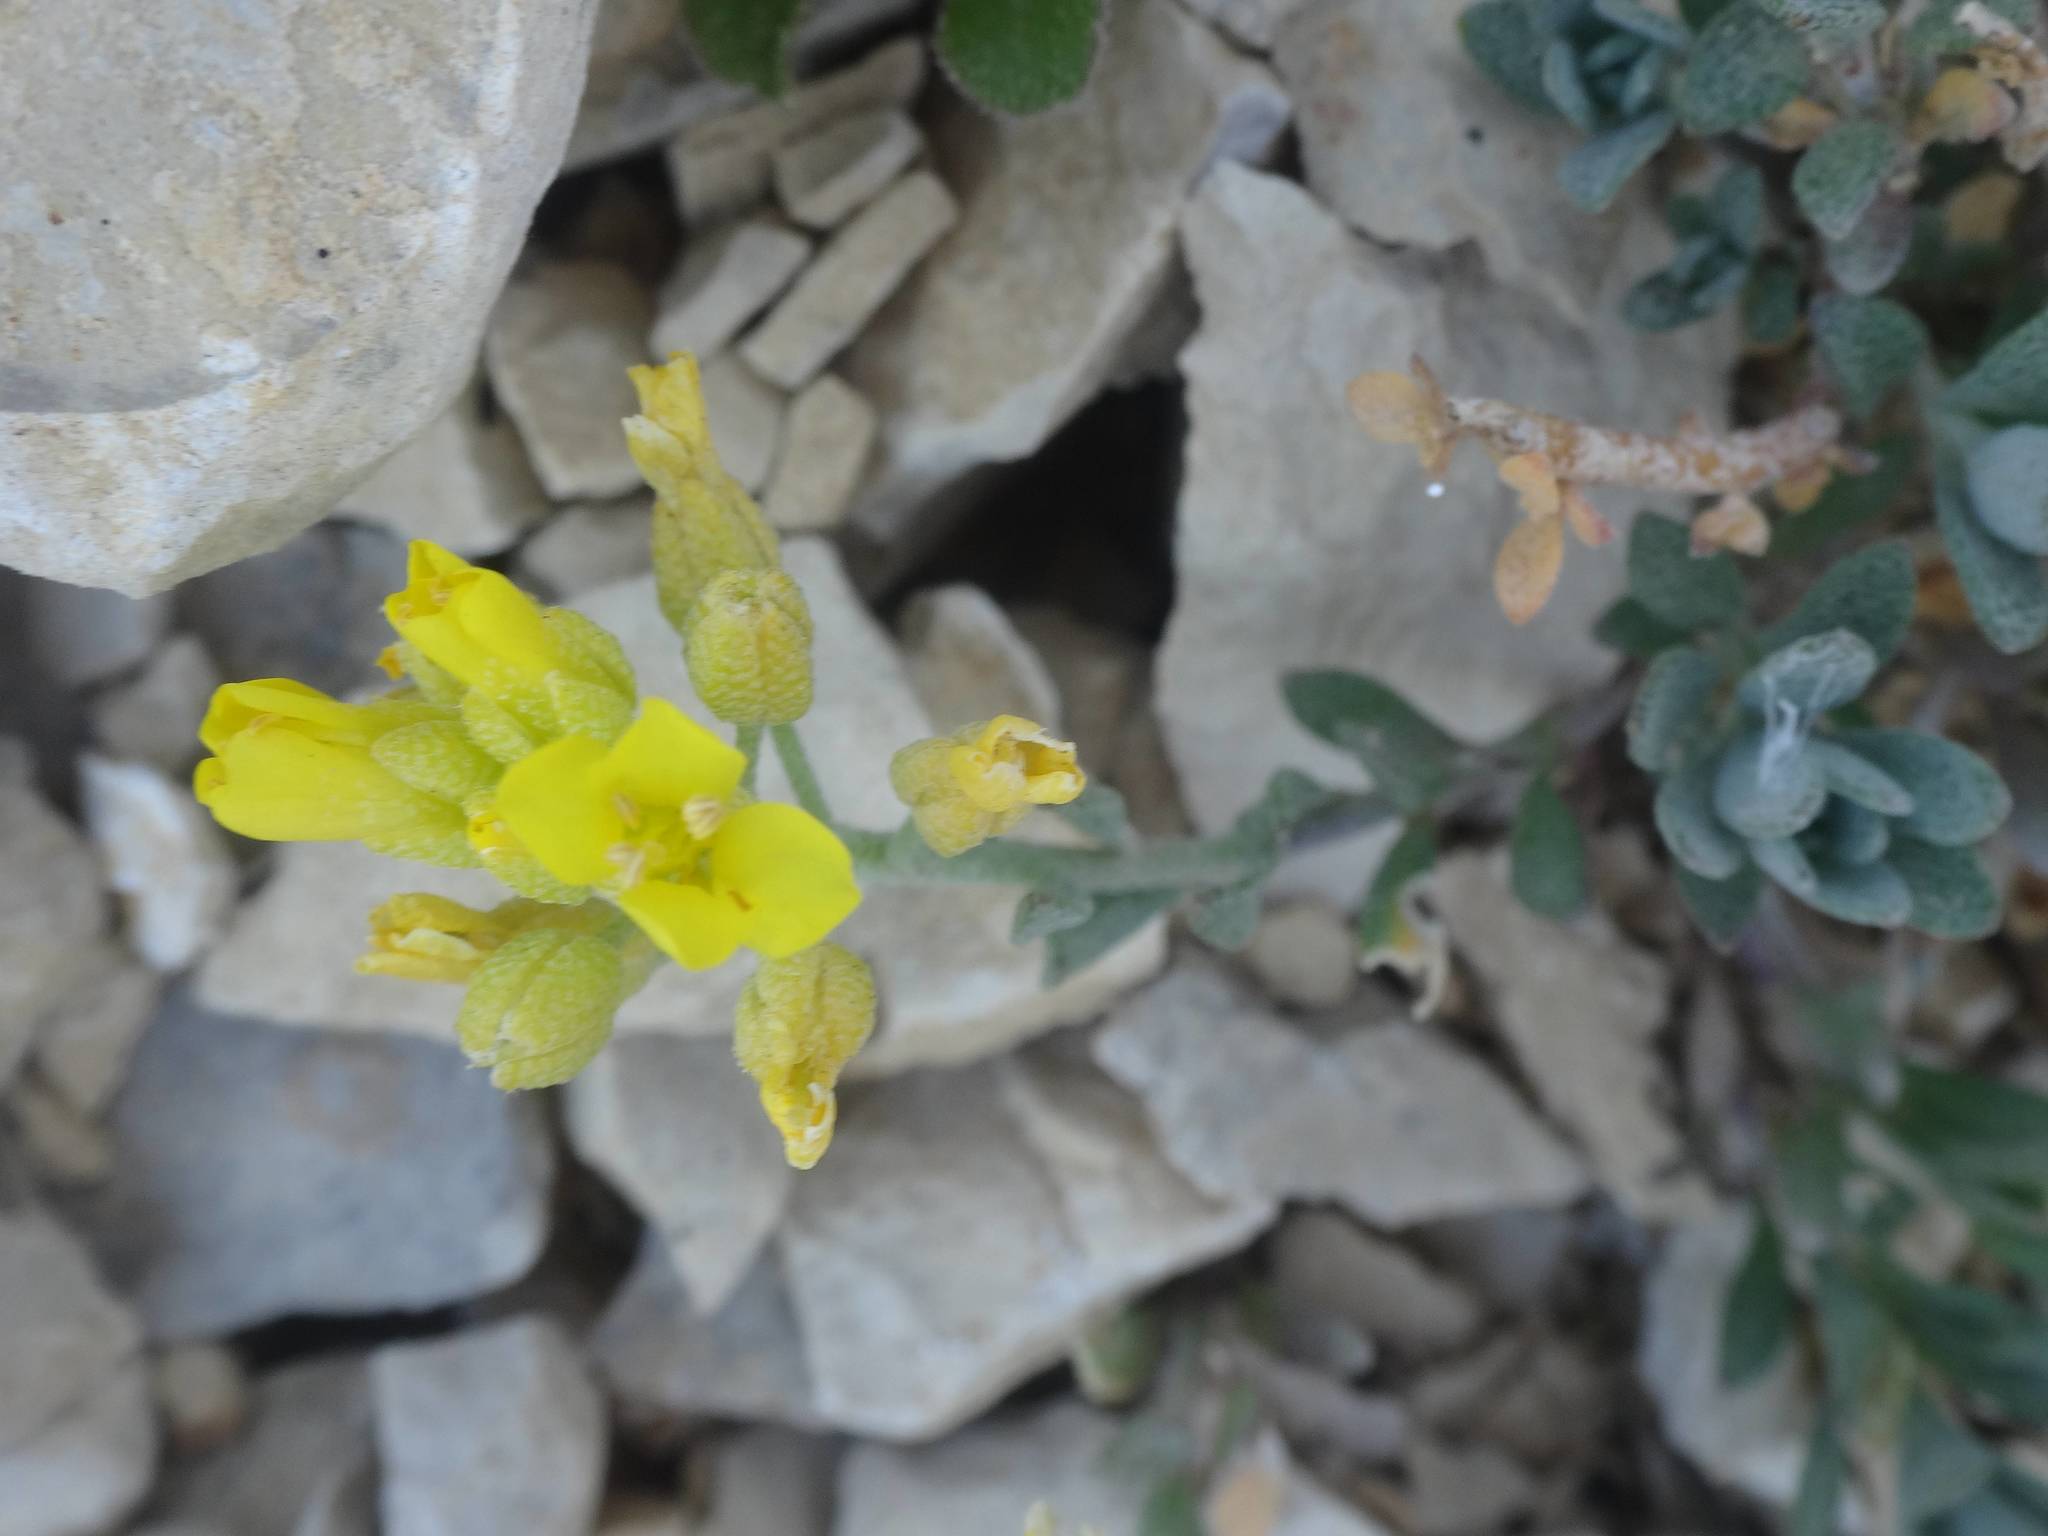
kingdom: Plantae
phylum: Tracheophyta
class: Magnoliopsida
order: Brassicales
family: Brassicaceae
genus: Alyssum
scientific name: Alyssum flexicaule
